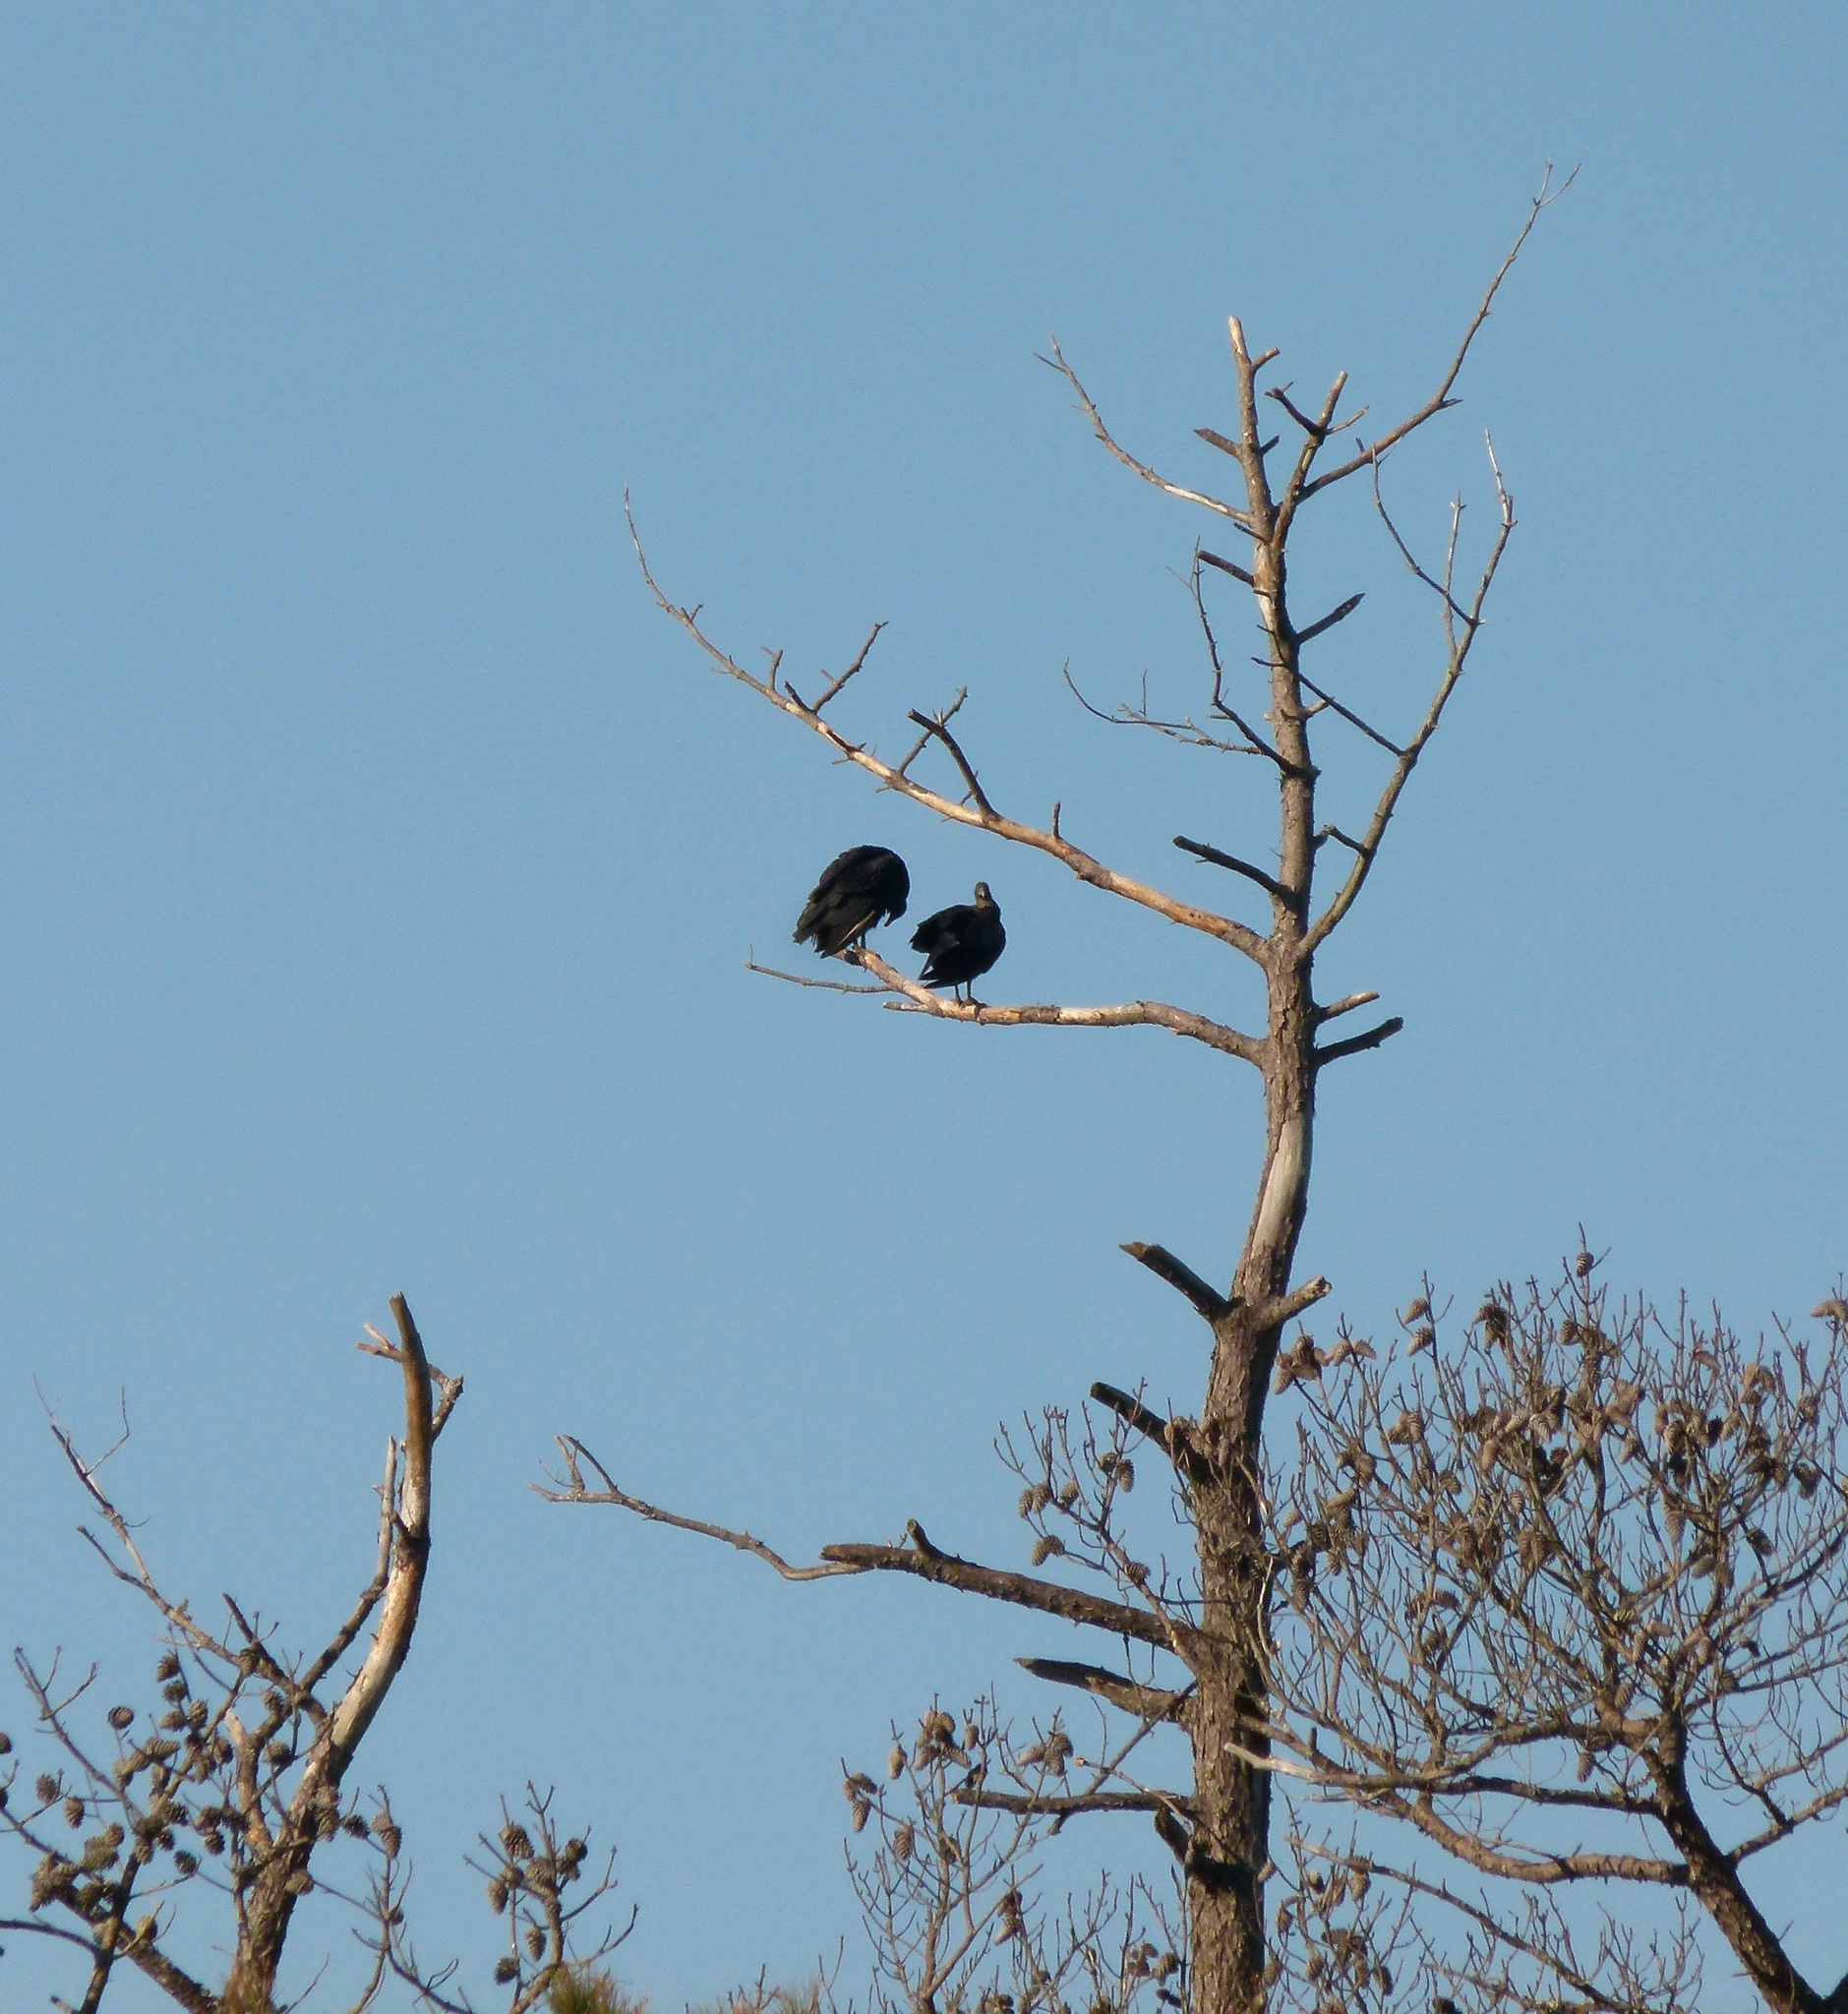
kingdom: Animalia
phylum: Chordata
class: Aves
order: Accipitriformes
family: Cathartidae
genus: Coragyps
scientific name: Coragyps atratus
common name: Black vulture
